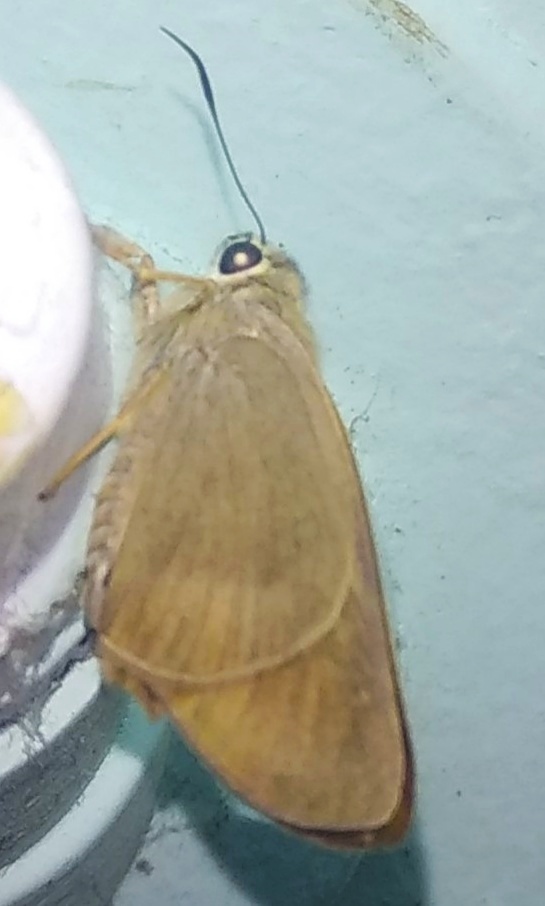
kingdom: Animalia
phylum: Arthropoda
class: Insecta
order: Lepidoptera
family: Hesperiidae
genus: Badamia
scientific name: Badamia exclamationis
